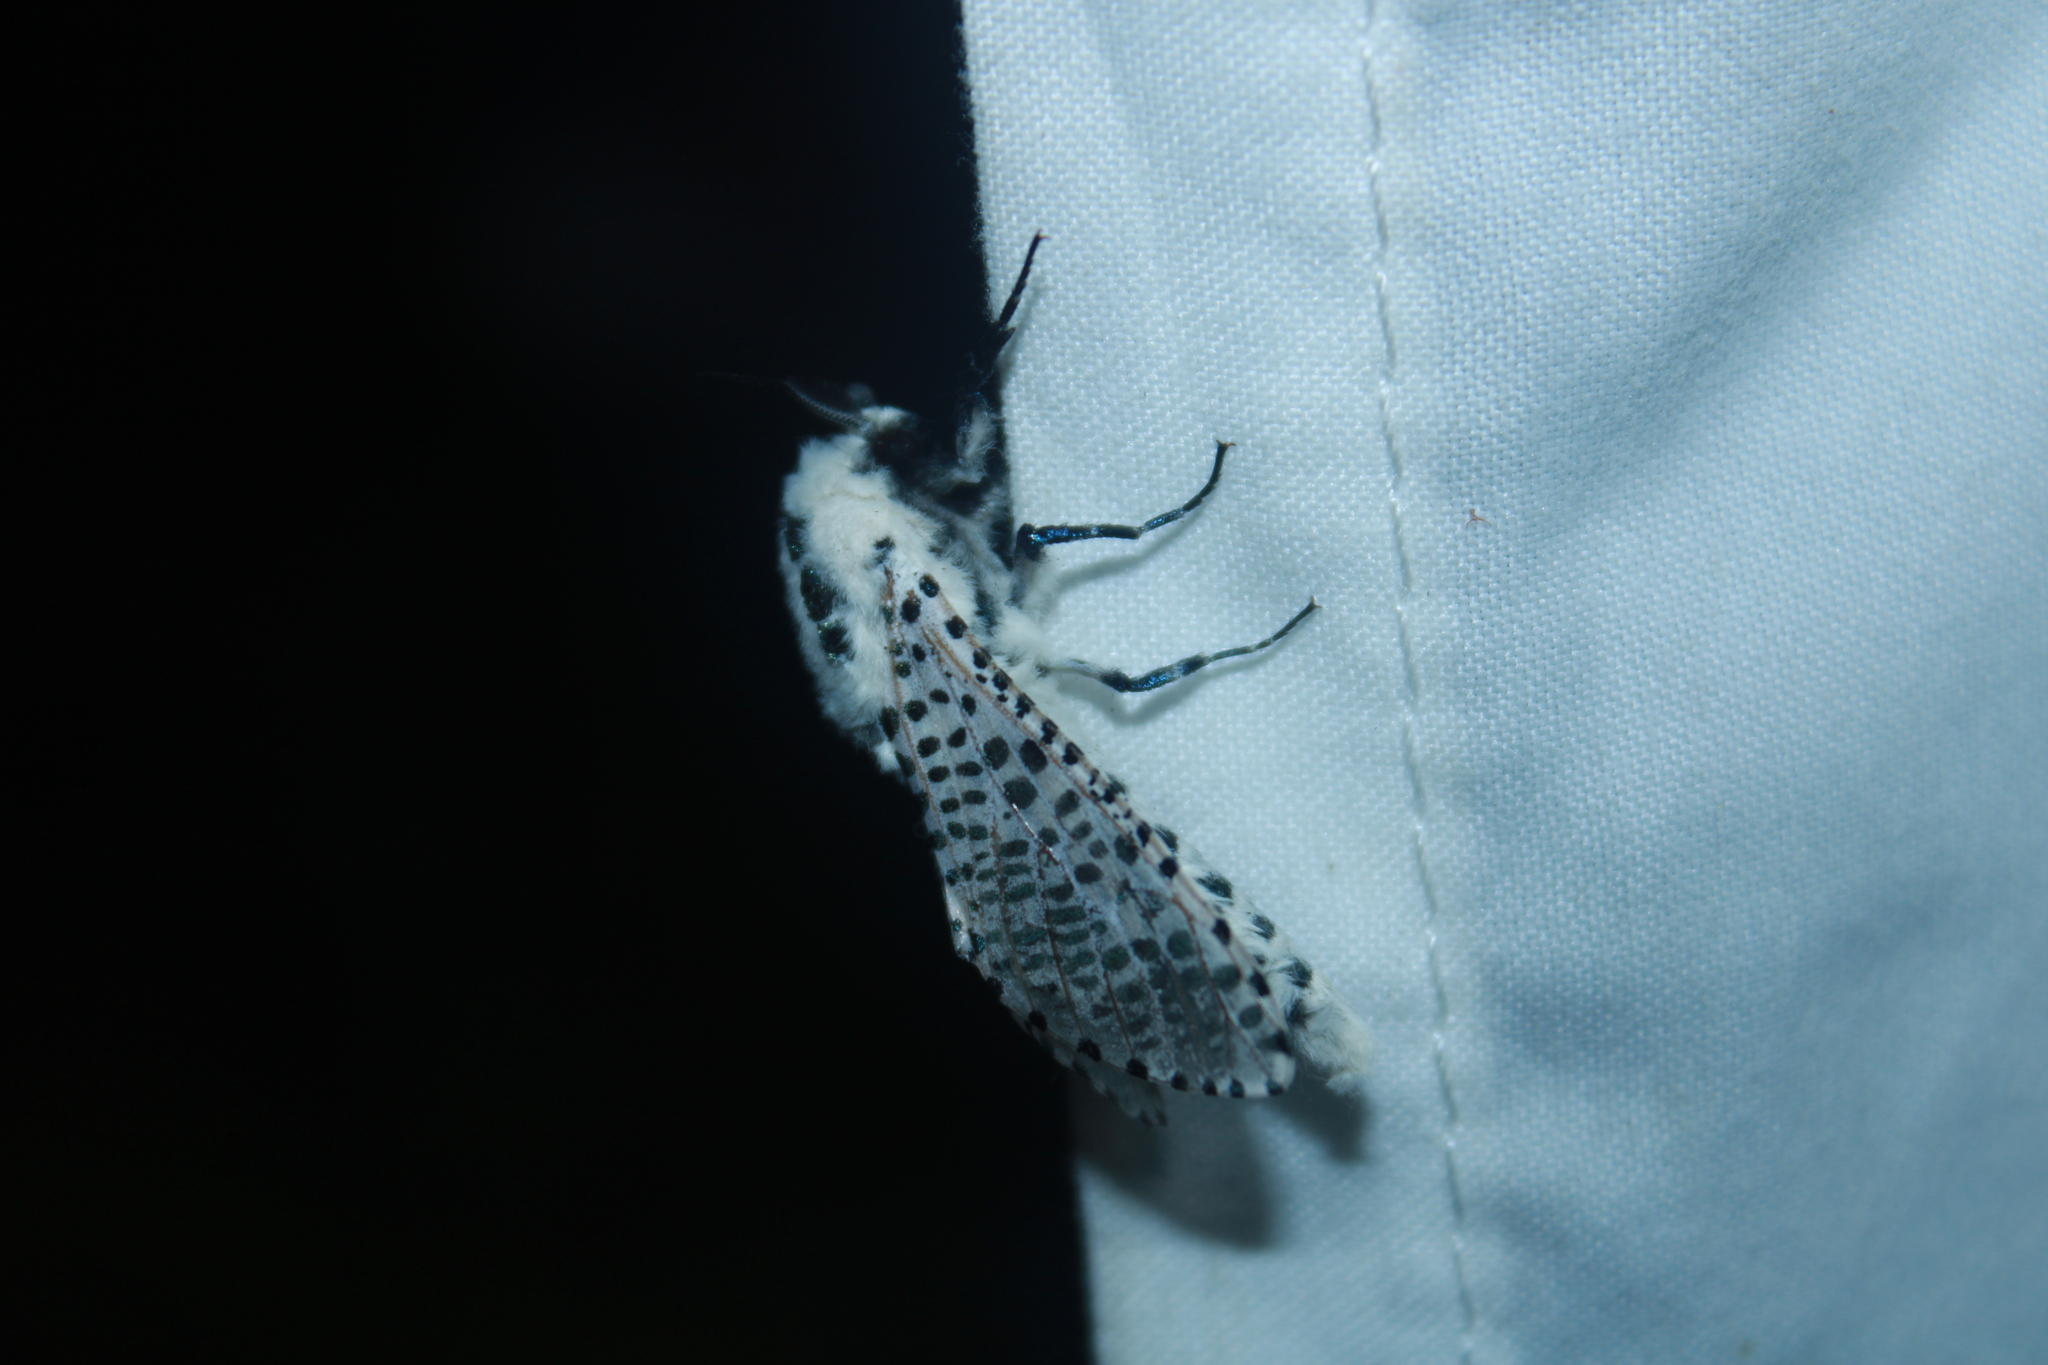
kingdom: Animalia
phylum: Arthropoda
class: Insecta
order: Lepidoptera
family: Cossidae
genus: Zeuzera
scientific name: Zeuzera pyrina
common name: Leopard moth
